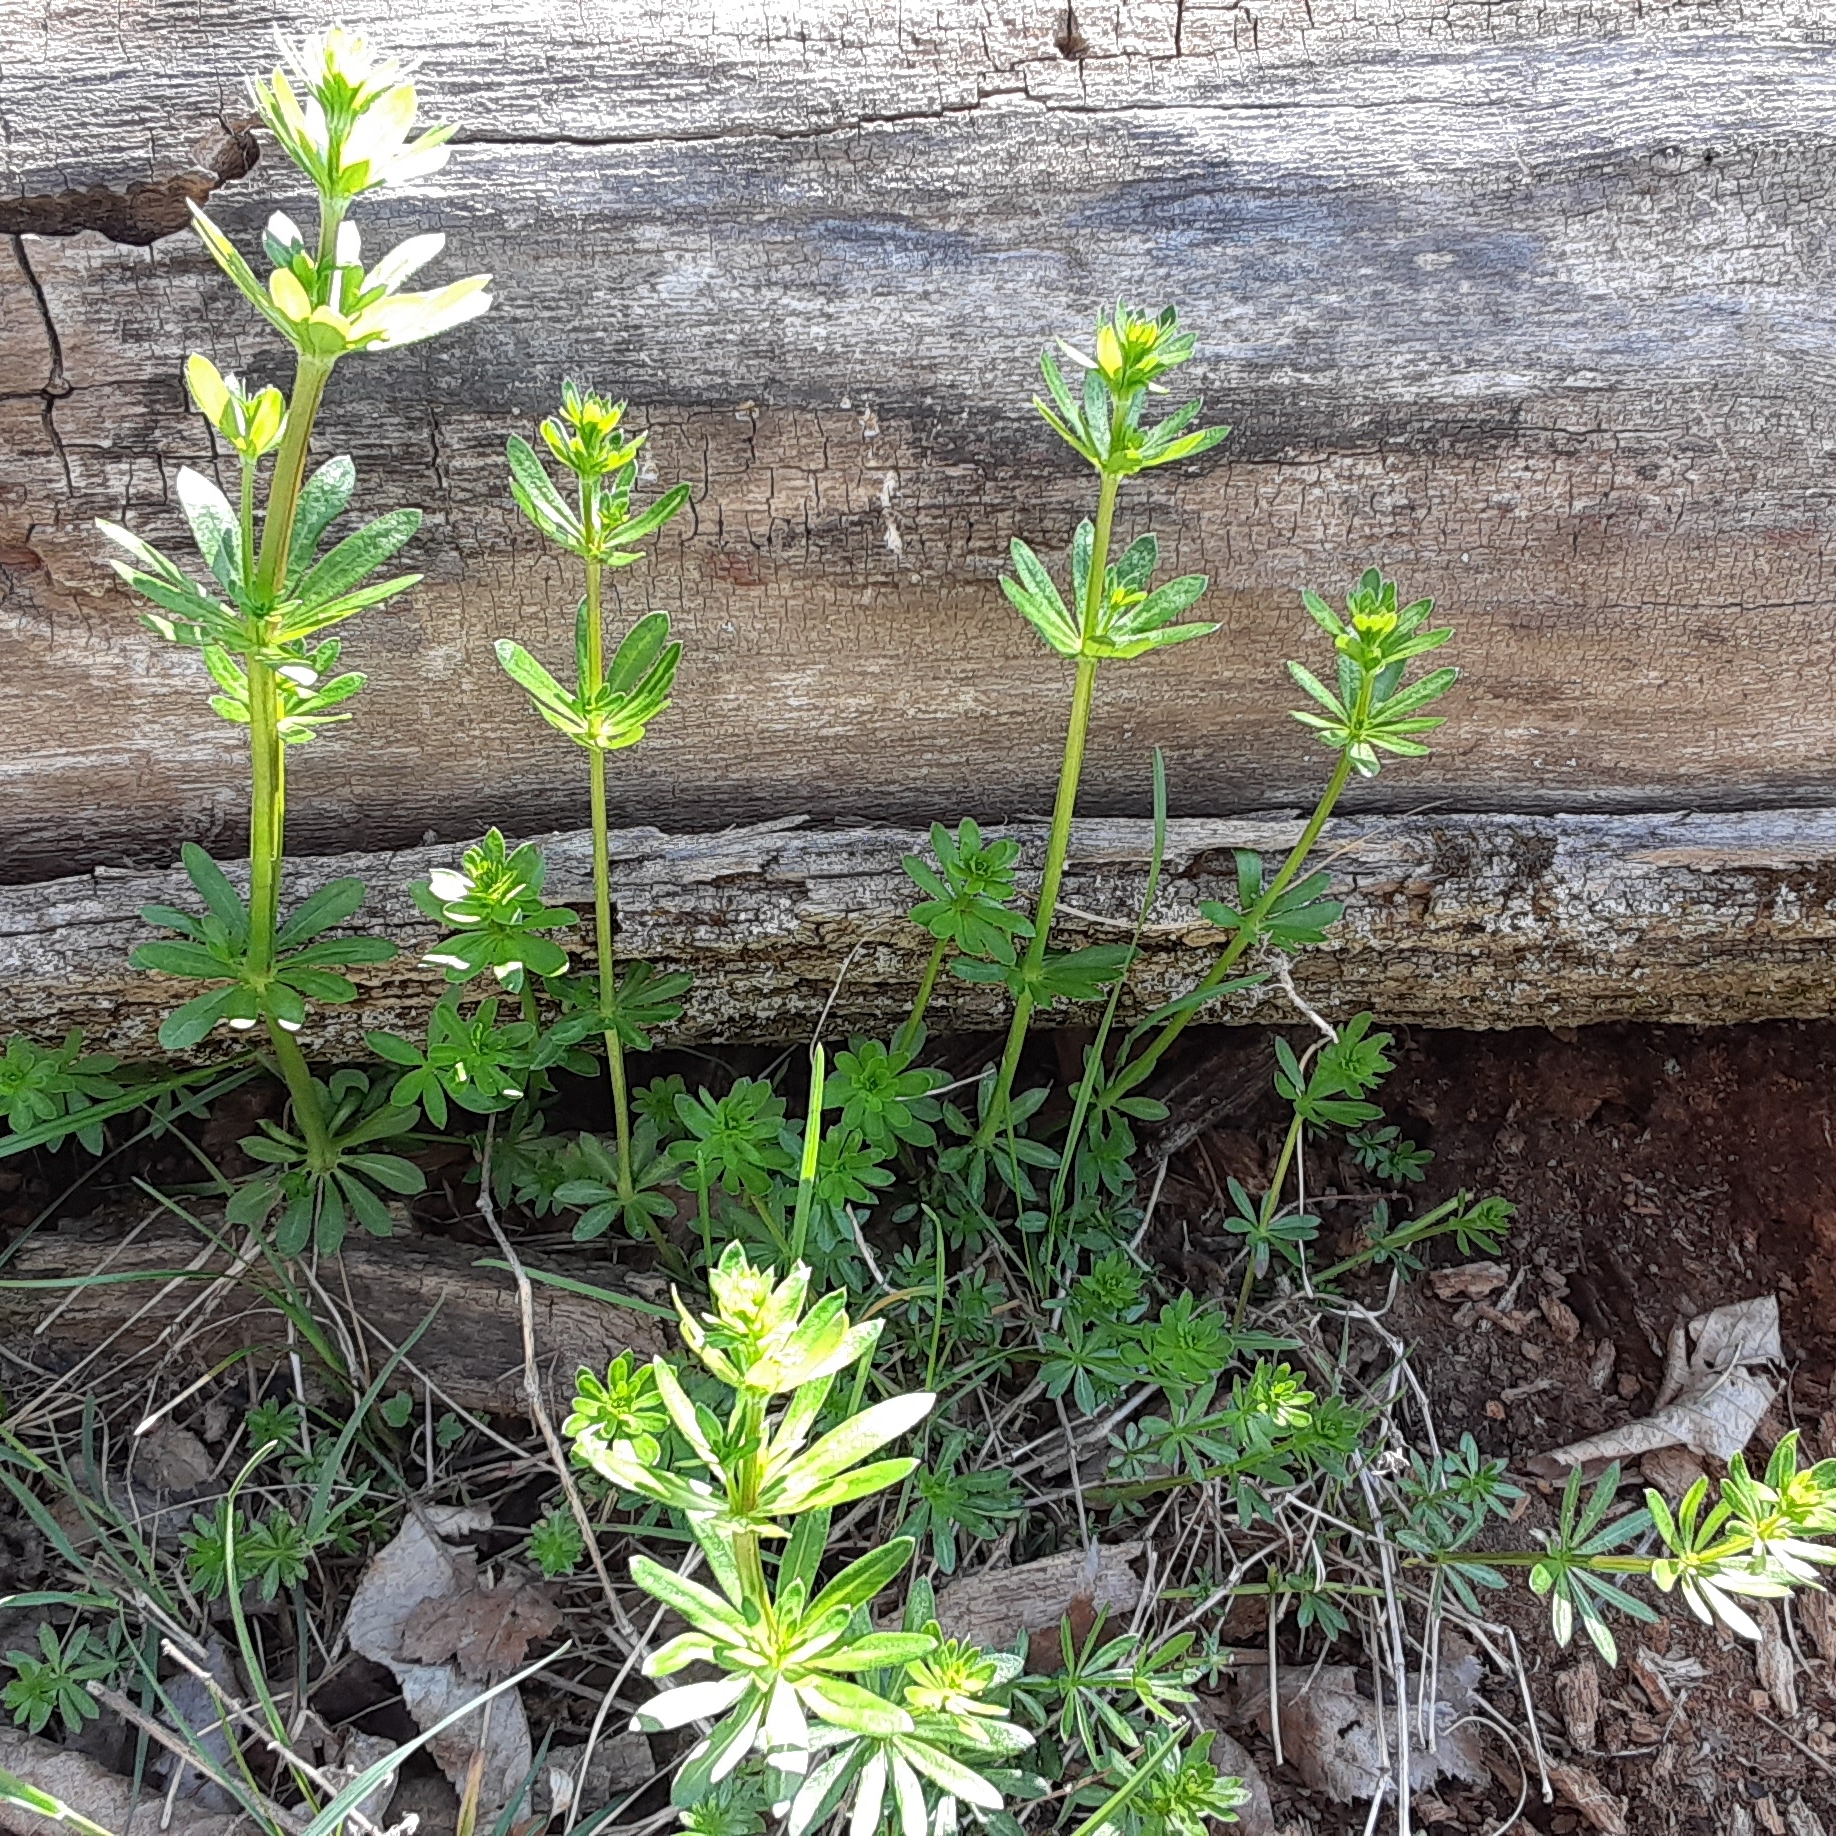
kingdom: Plantae
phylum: Tracheophyta
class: Magnoliopsida
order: Gentianales
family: Rubiaceae
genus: Galium
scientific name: Galium mollugo
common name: Hedge bedstraw
